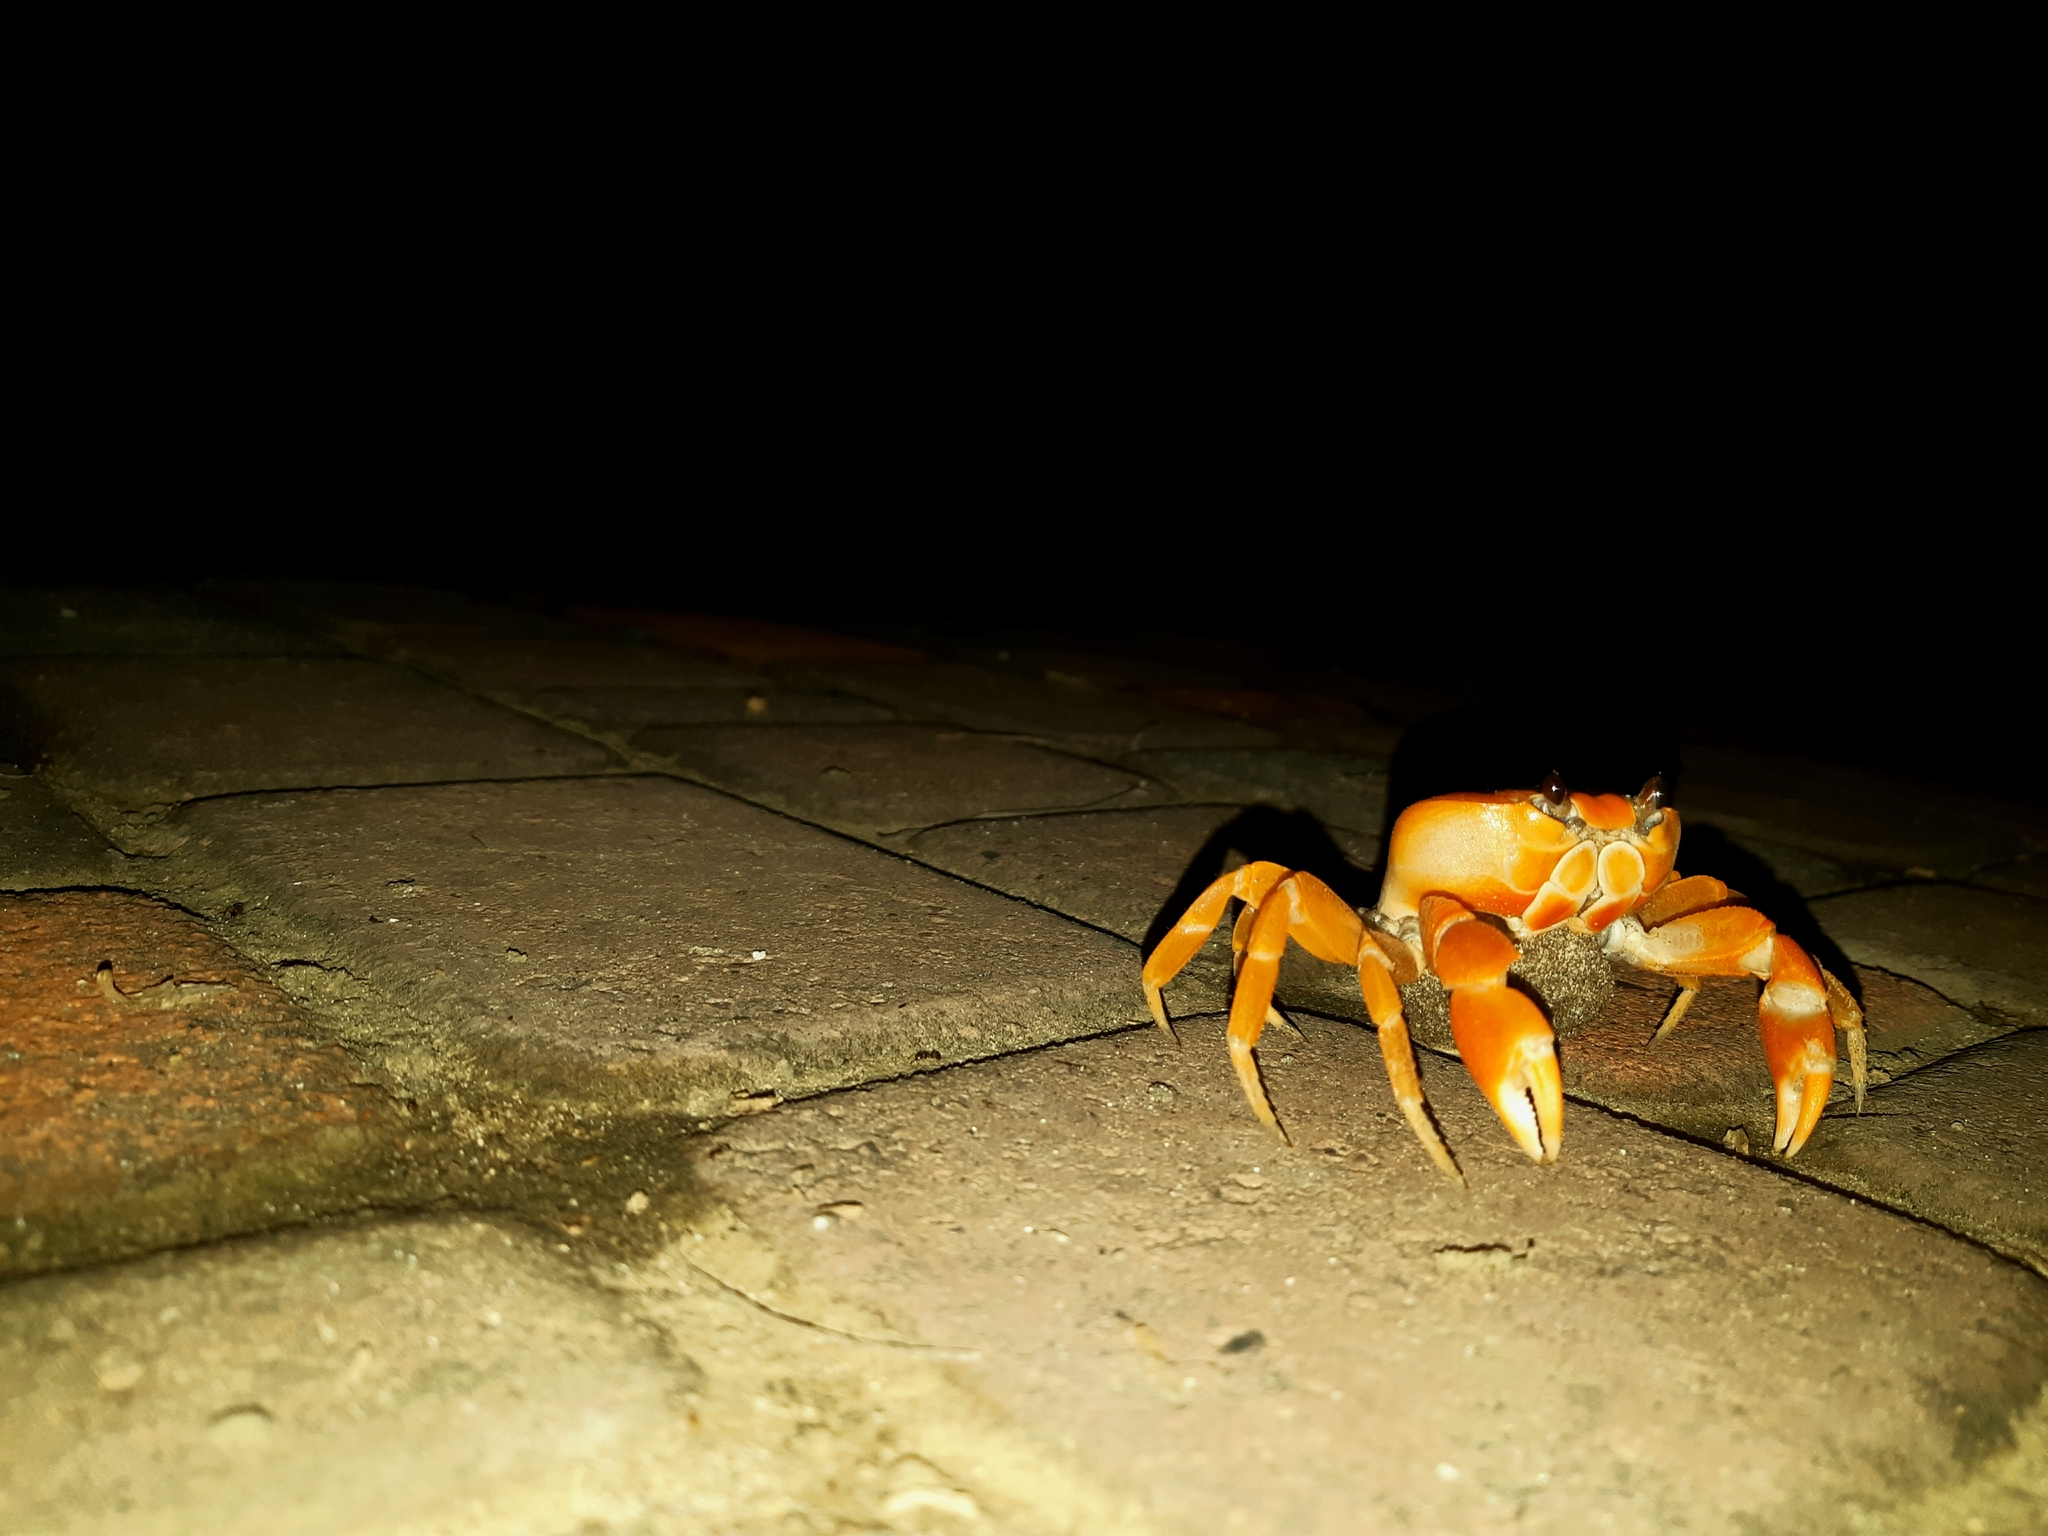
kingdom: Animalia
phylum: Arthropoda
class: Malacostraca
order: Decapoda
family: Gecarcinidae
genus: Gecarcinus
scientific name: Gecarcinus nobilii
